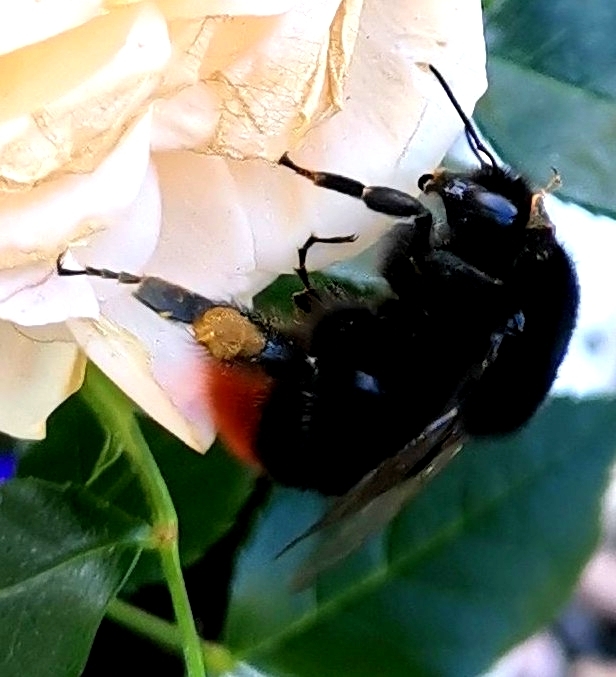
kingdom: Animalia
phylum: Arthropoda
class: Insecta
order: Hymenoptera
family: Apidae
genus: Bombus
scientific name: Bombus lapidarius
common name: Large red-tailed humble-bee
